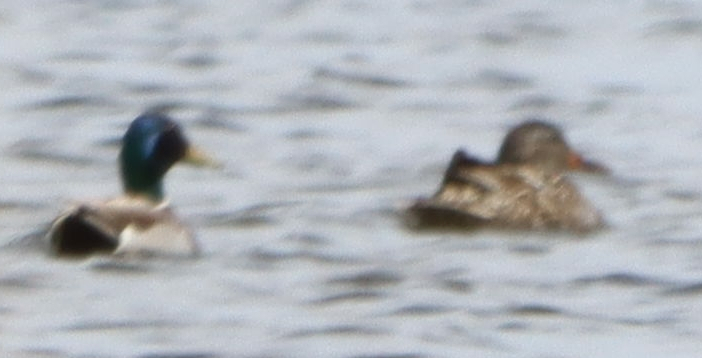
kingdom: Animalia
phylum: Chordata
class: Aves
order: Anseriformes
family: Anatidae
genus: Anas
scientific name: Anas platyrhynchos
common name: Mallard
